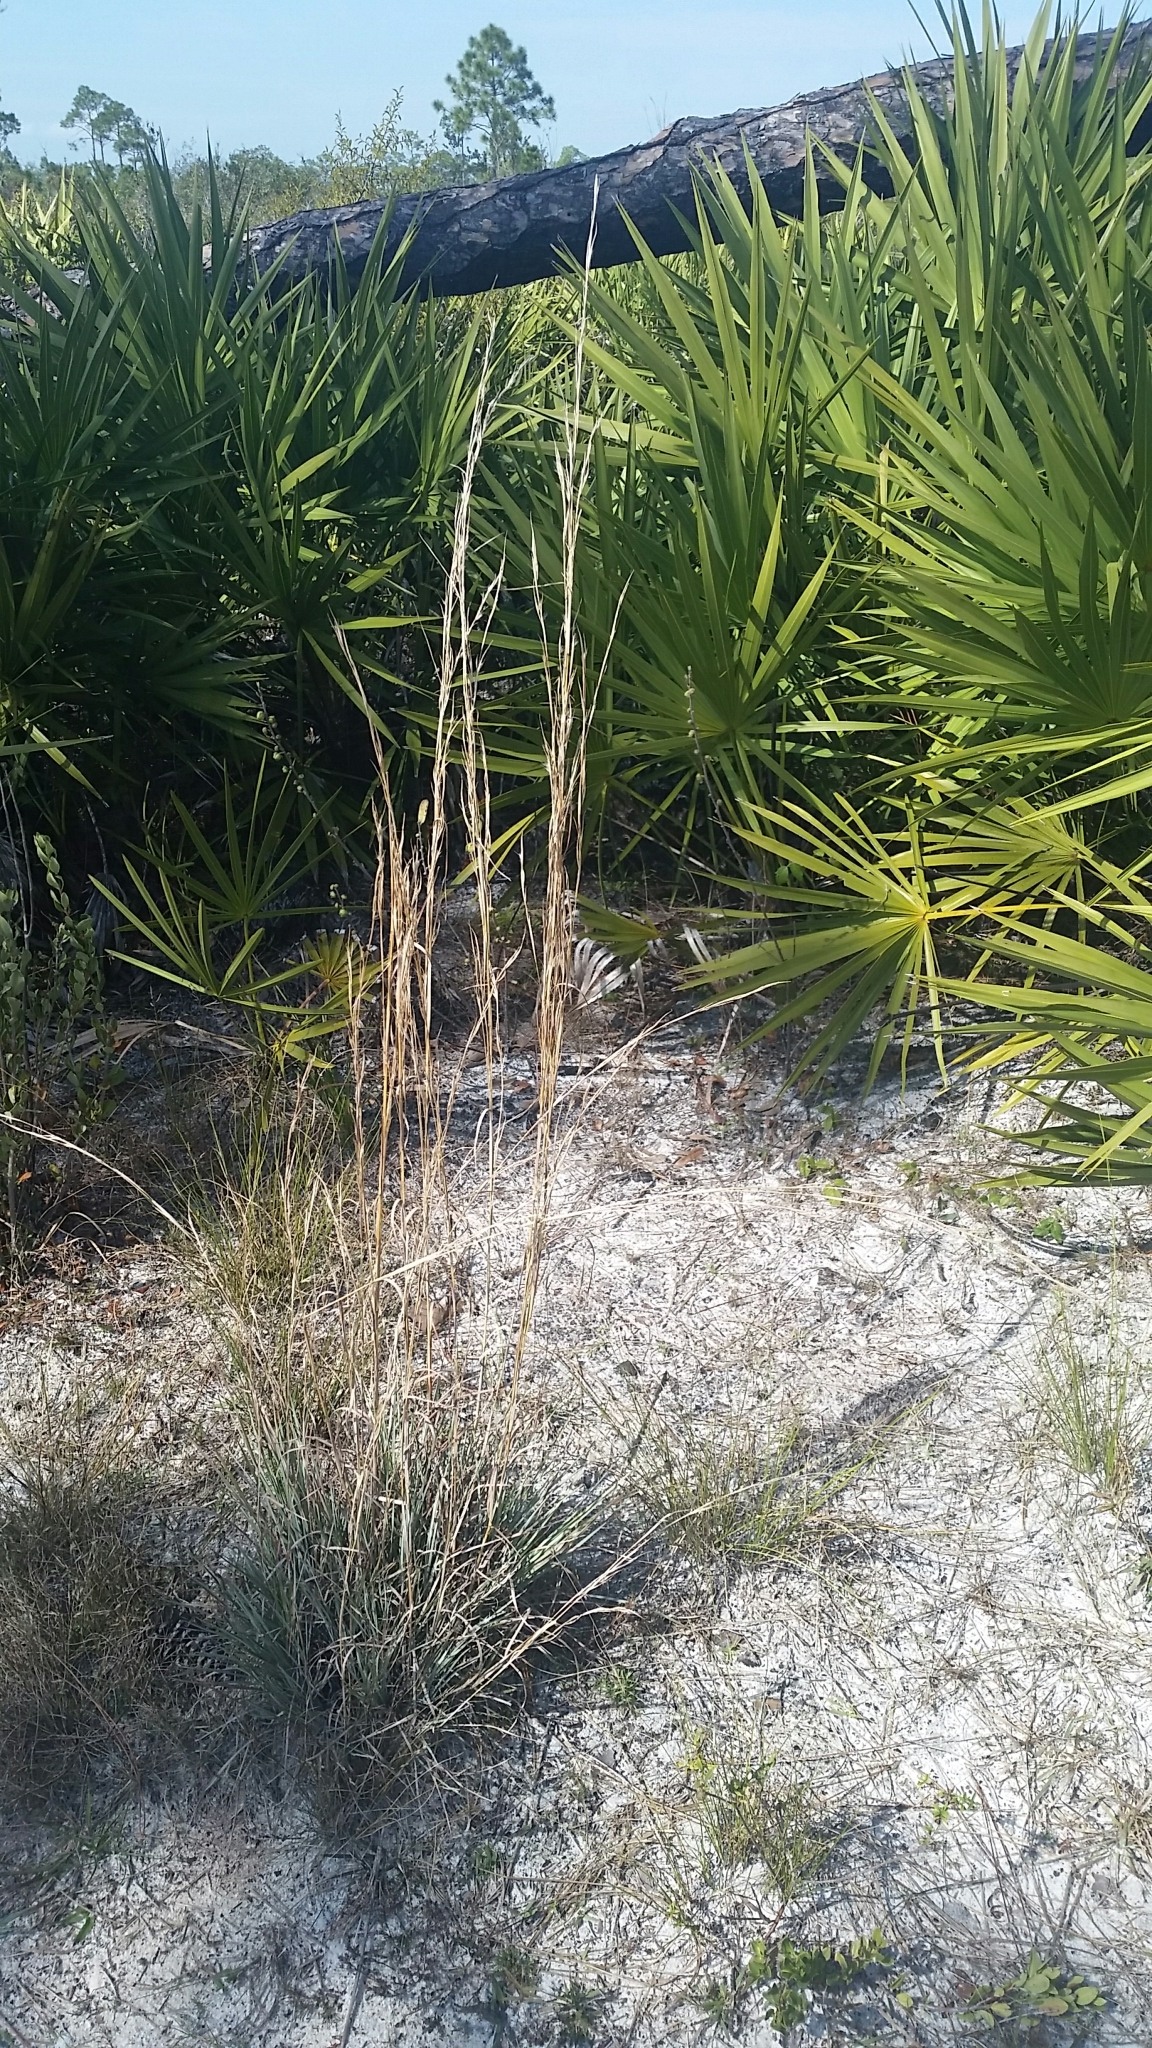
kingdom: Plantae
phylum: Tracheophyta
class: Liliopsida
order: Poales
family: Poaceae
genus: Andropogon
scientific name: Andropogon capillipes
